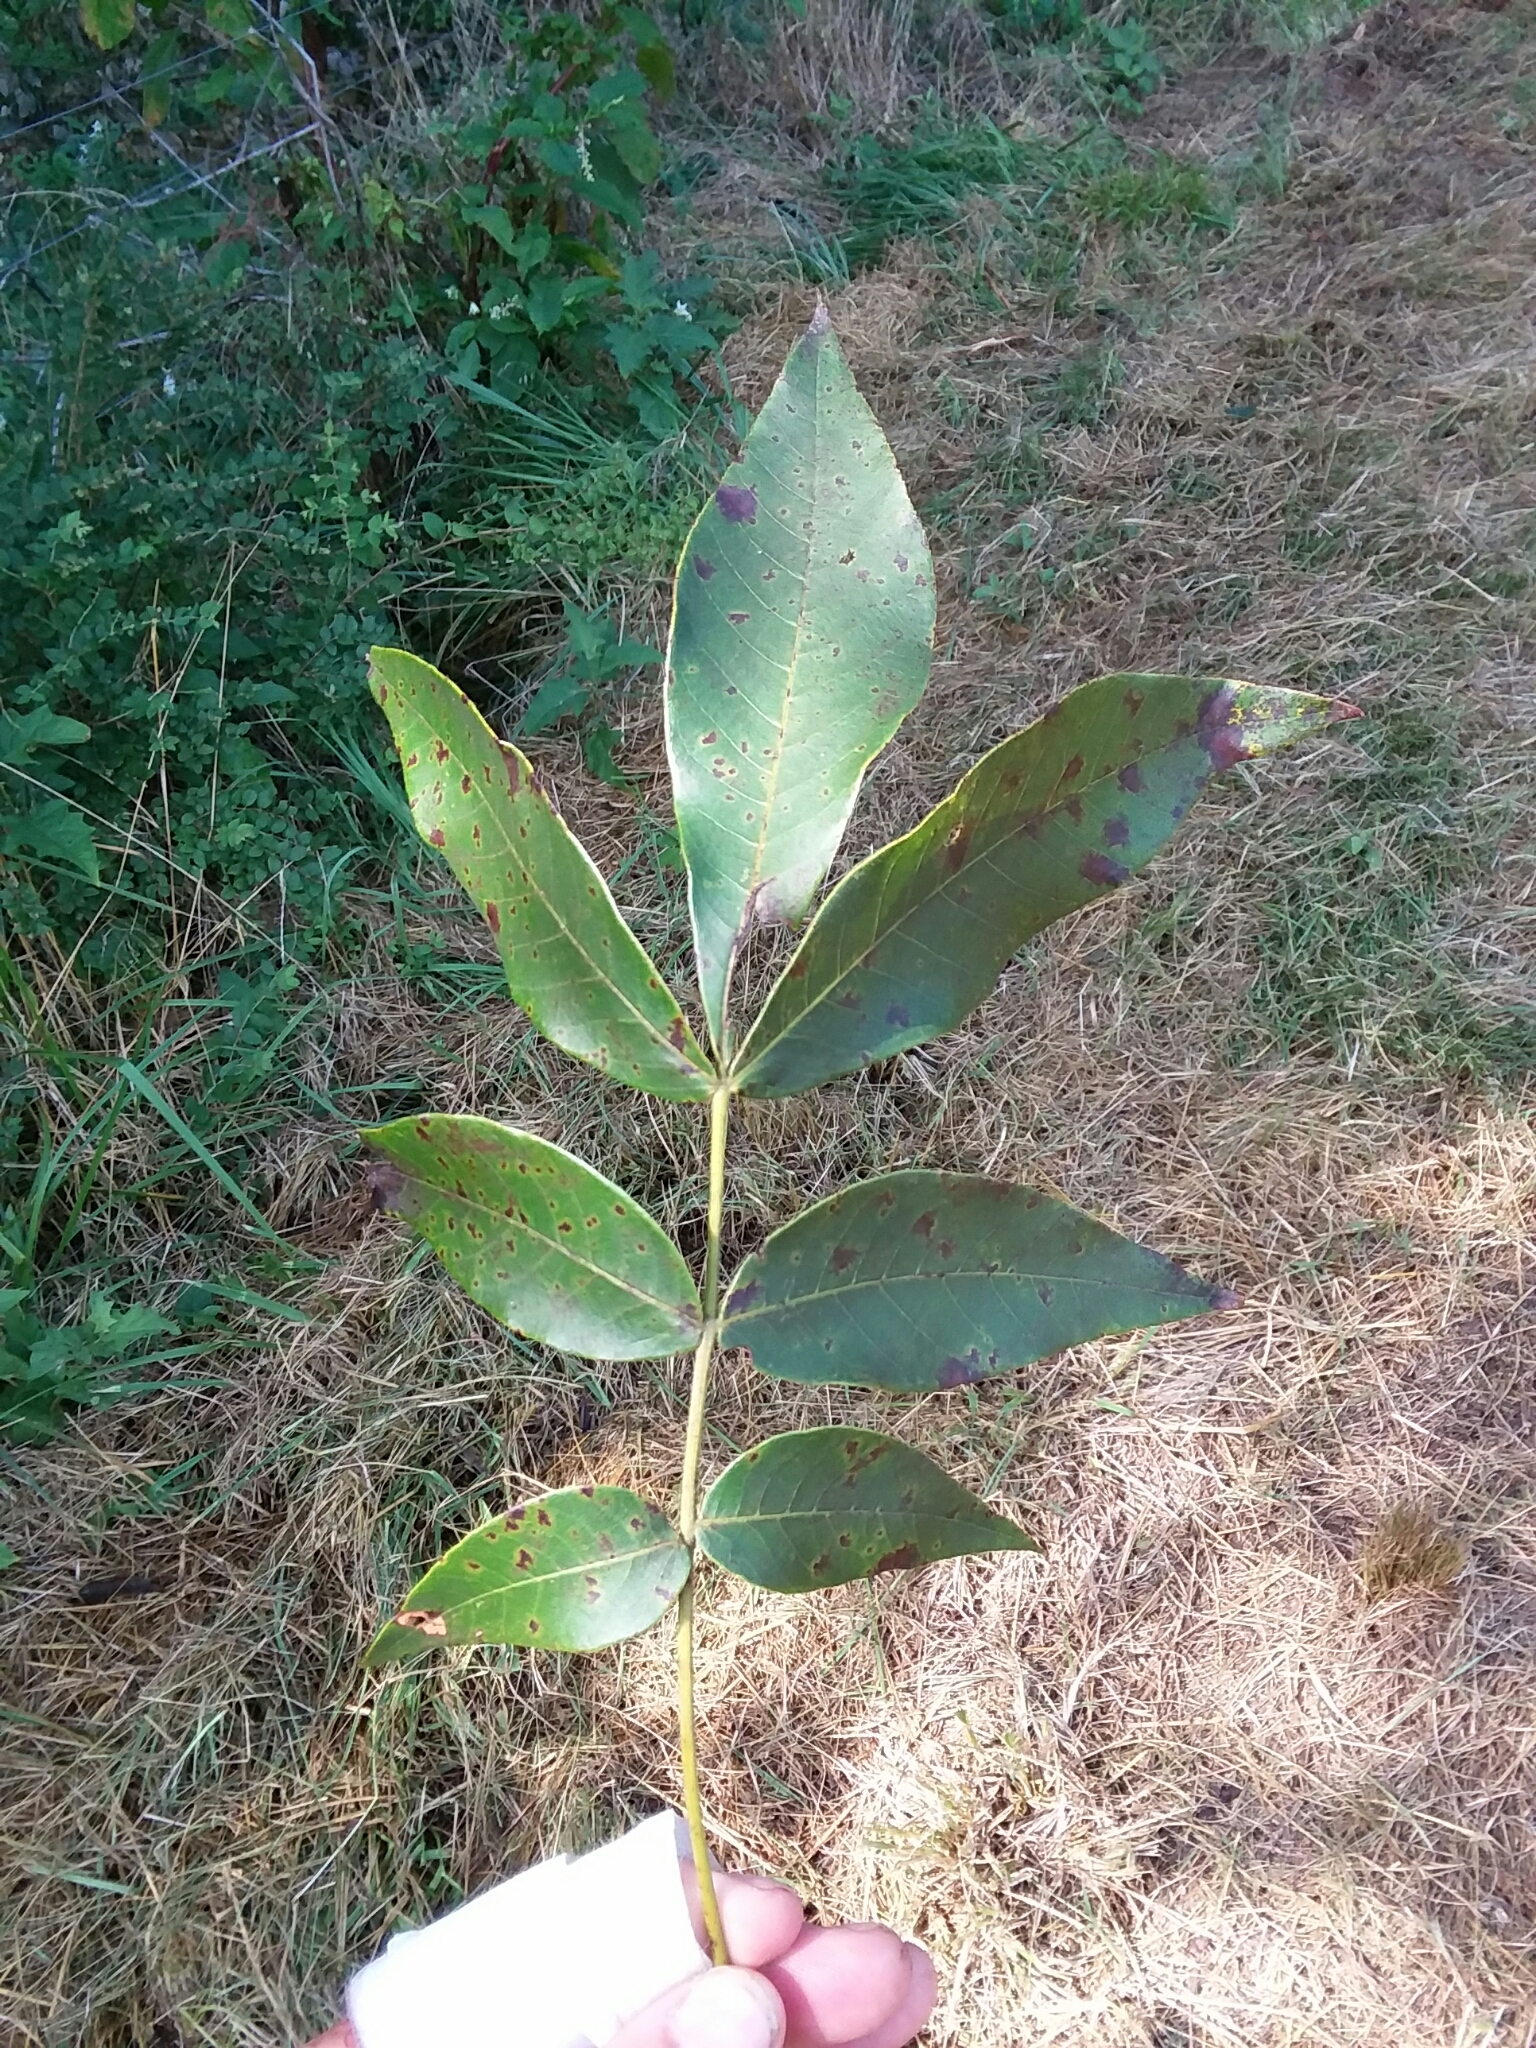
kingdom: Plantae
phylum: Tracheophyta
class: Magnoliopsida
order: Fagales
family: Juglandaceae
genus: Carya
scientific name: Carya alba
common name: Mockernut hickory
